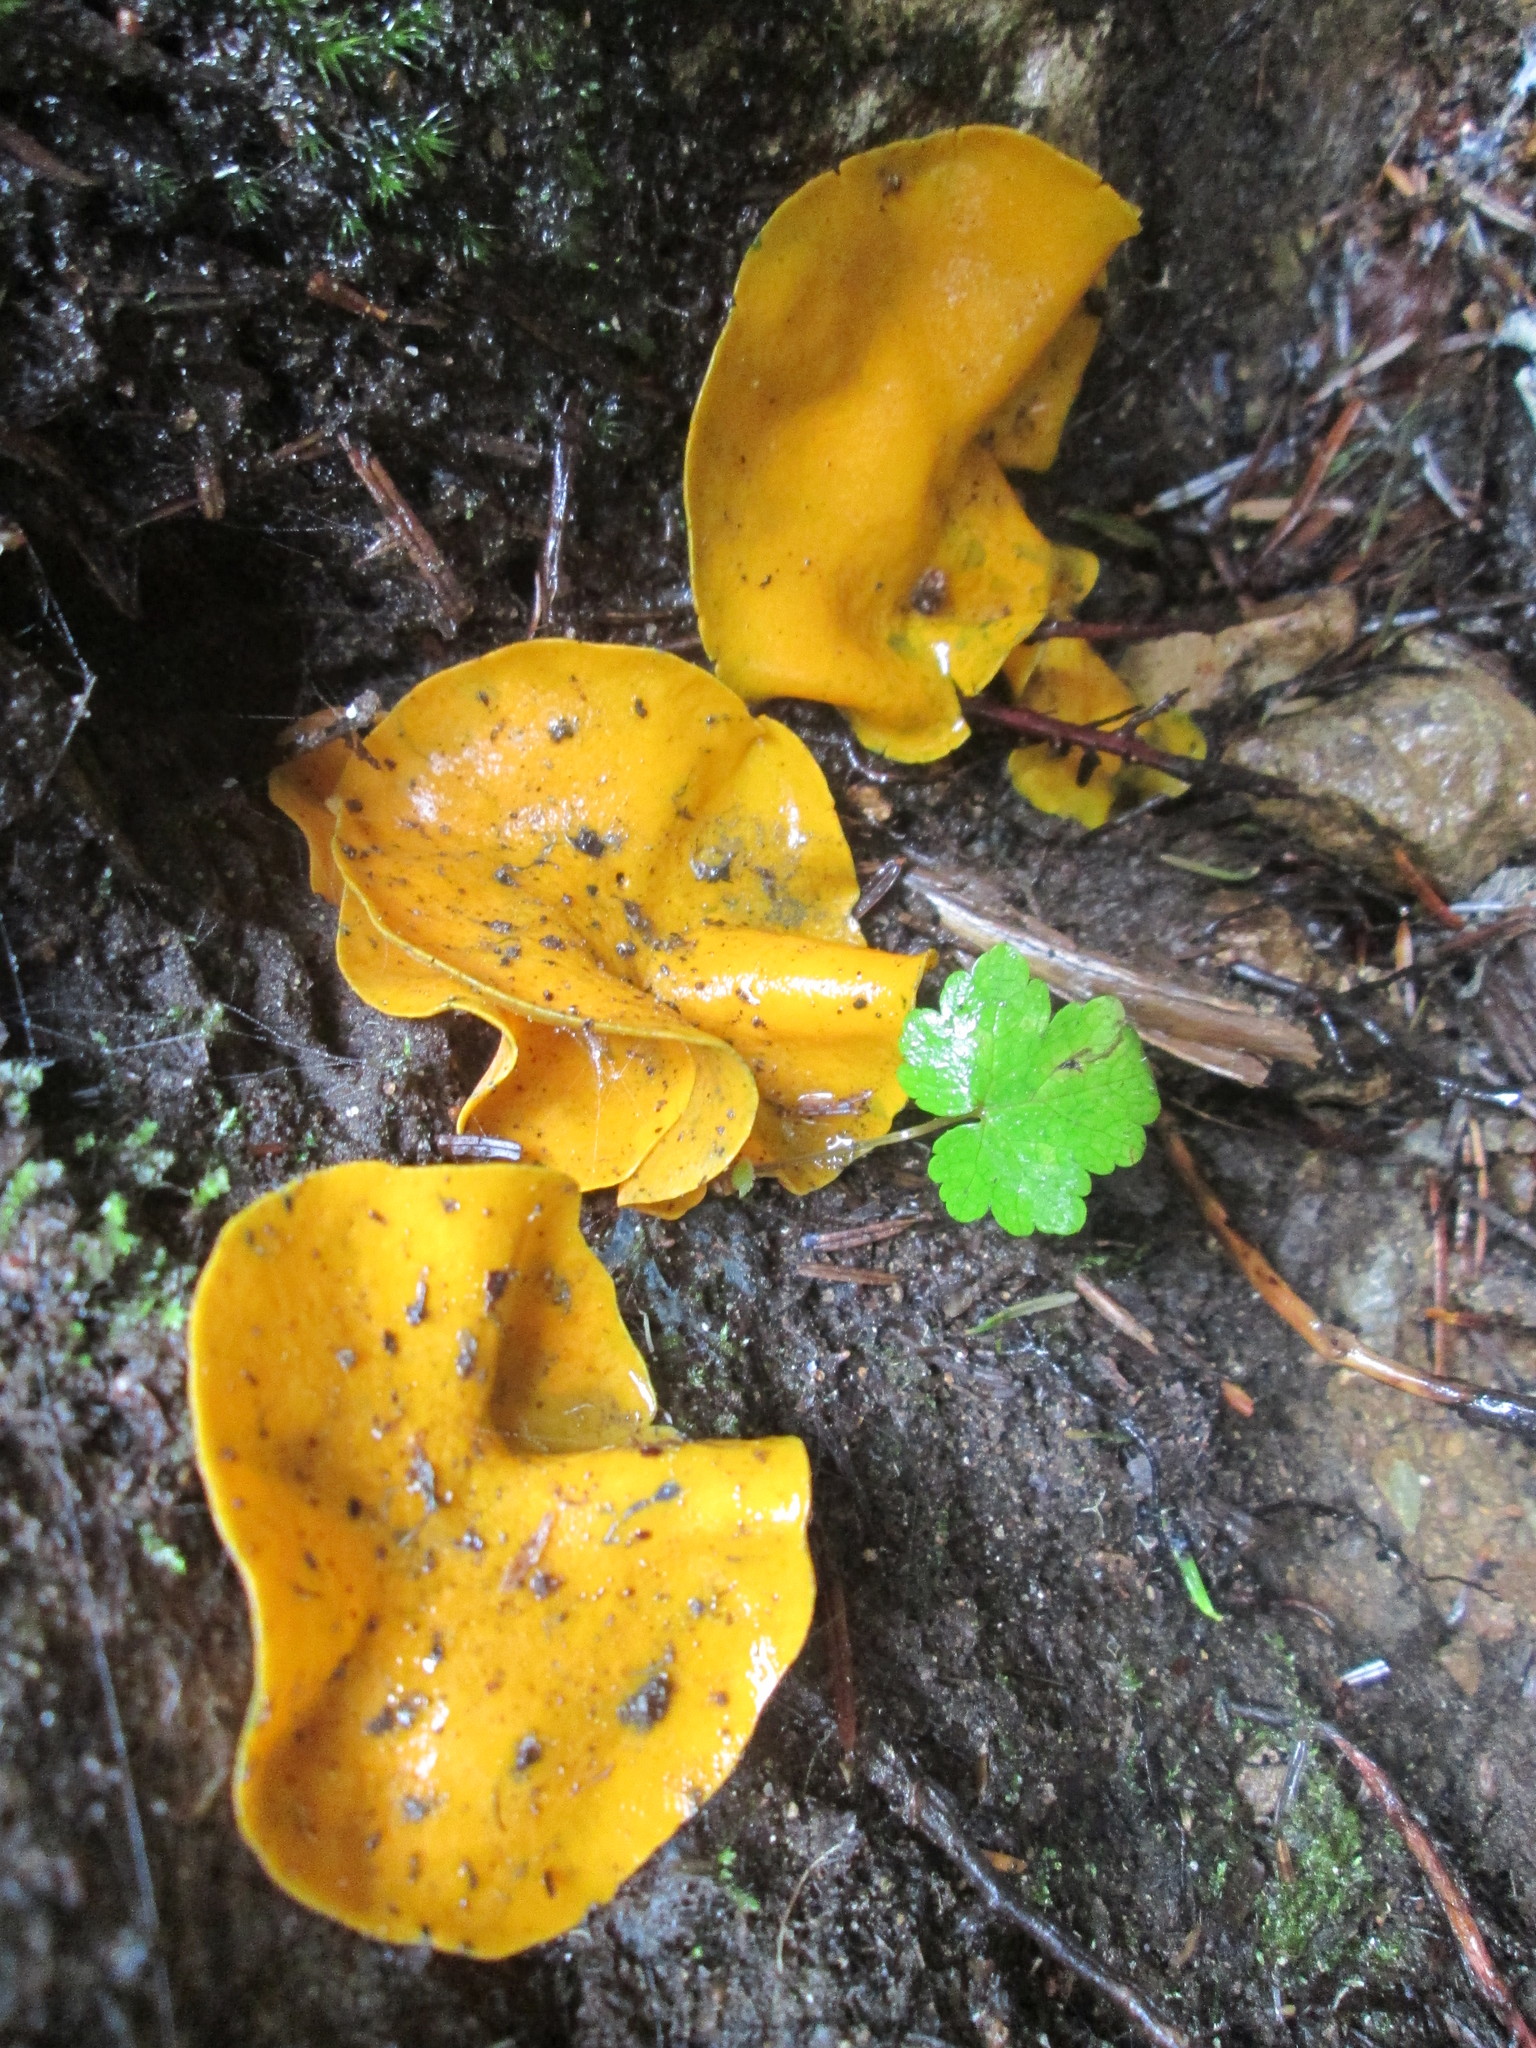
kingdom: Fungi
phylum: Ascomycota
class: Pezizomycetes
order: Pezizales
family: Caloscyphaceae
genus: Caloscypha
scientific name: Caloscypha fulgens
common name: Golden cup
